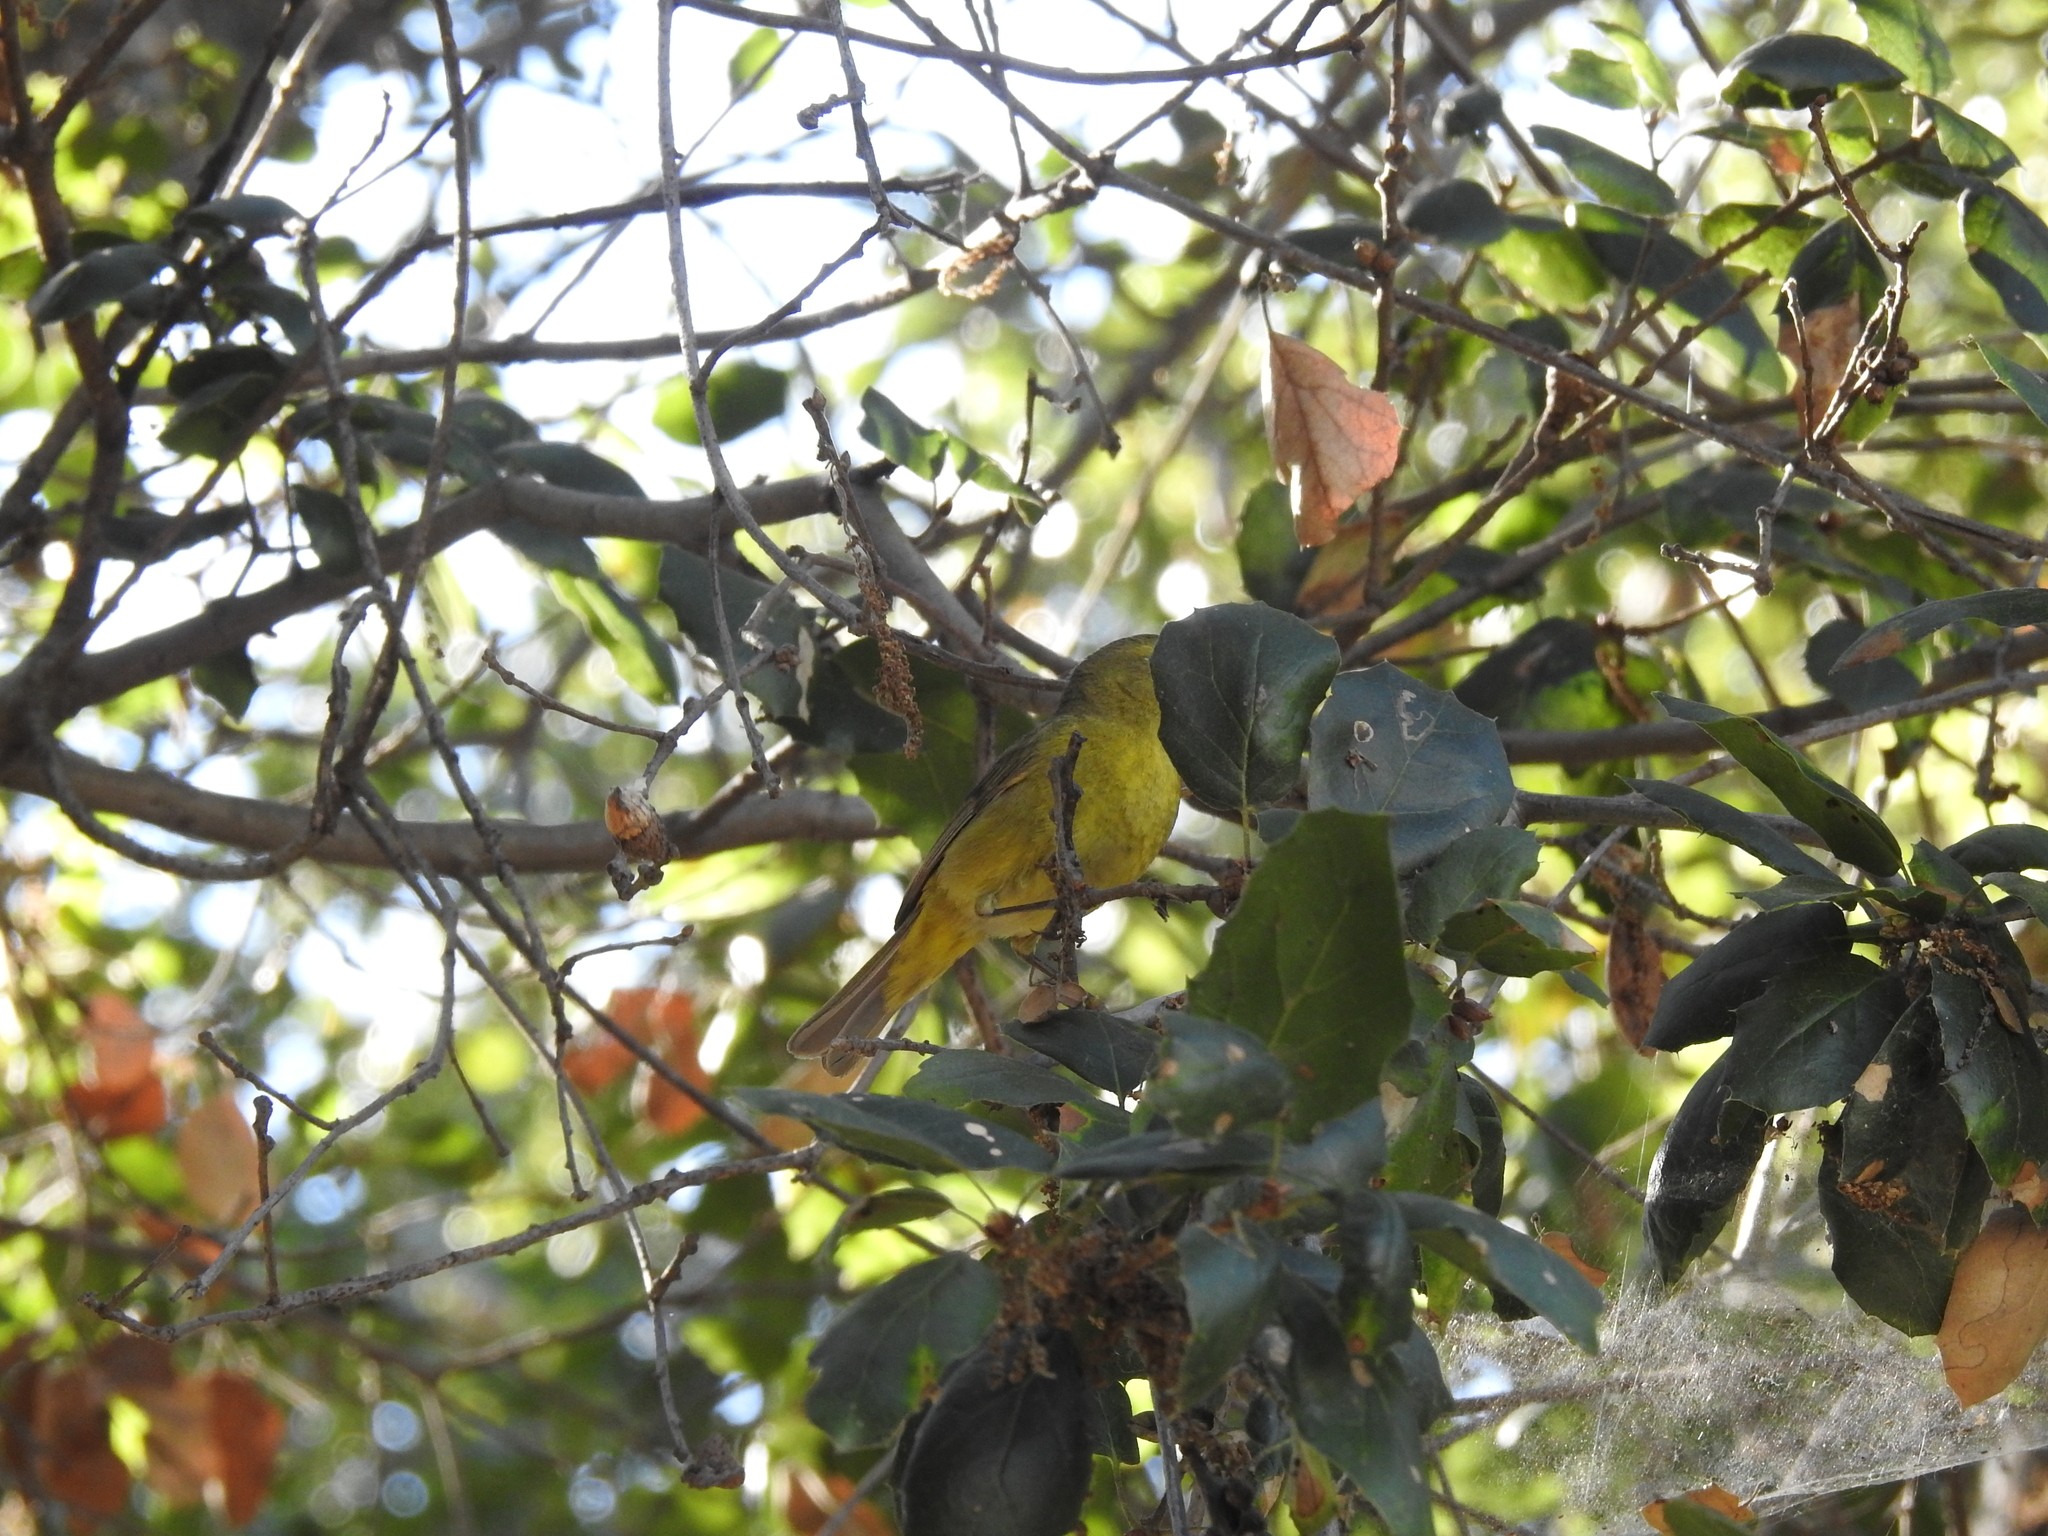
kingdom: Animalia
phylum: Chordata
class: Aves
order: Passeriformes
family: Parulidae
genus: Leiothlypis
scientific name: Leiothlypis celata
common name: Orange-crowned warbler
